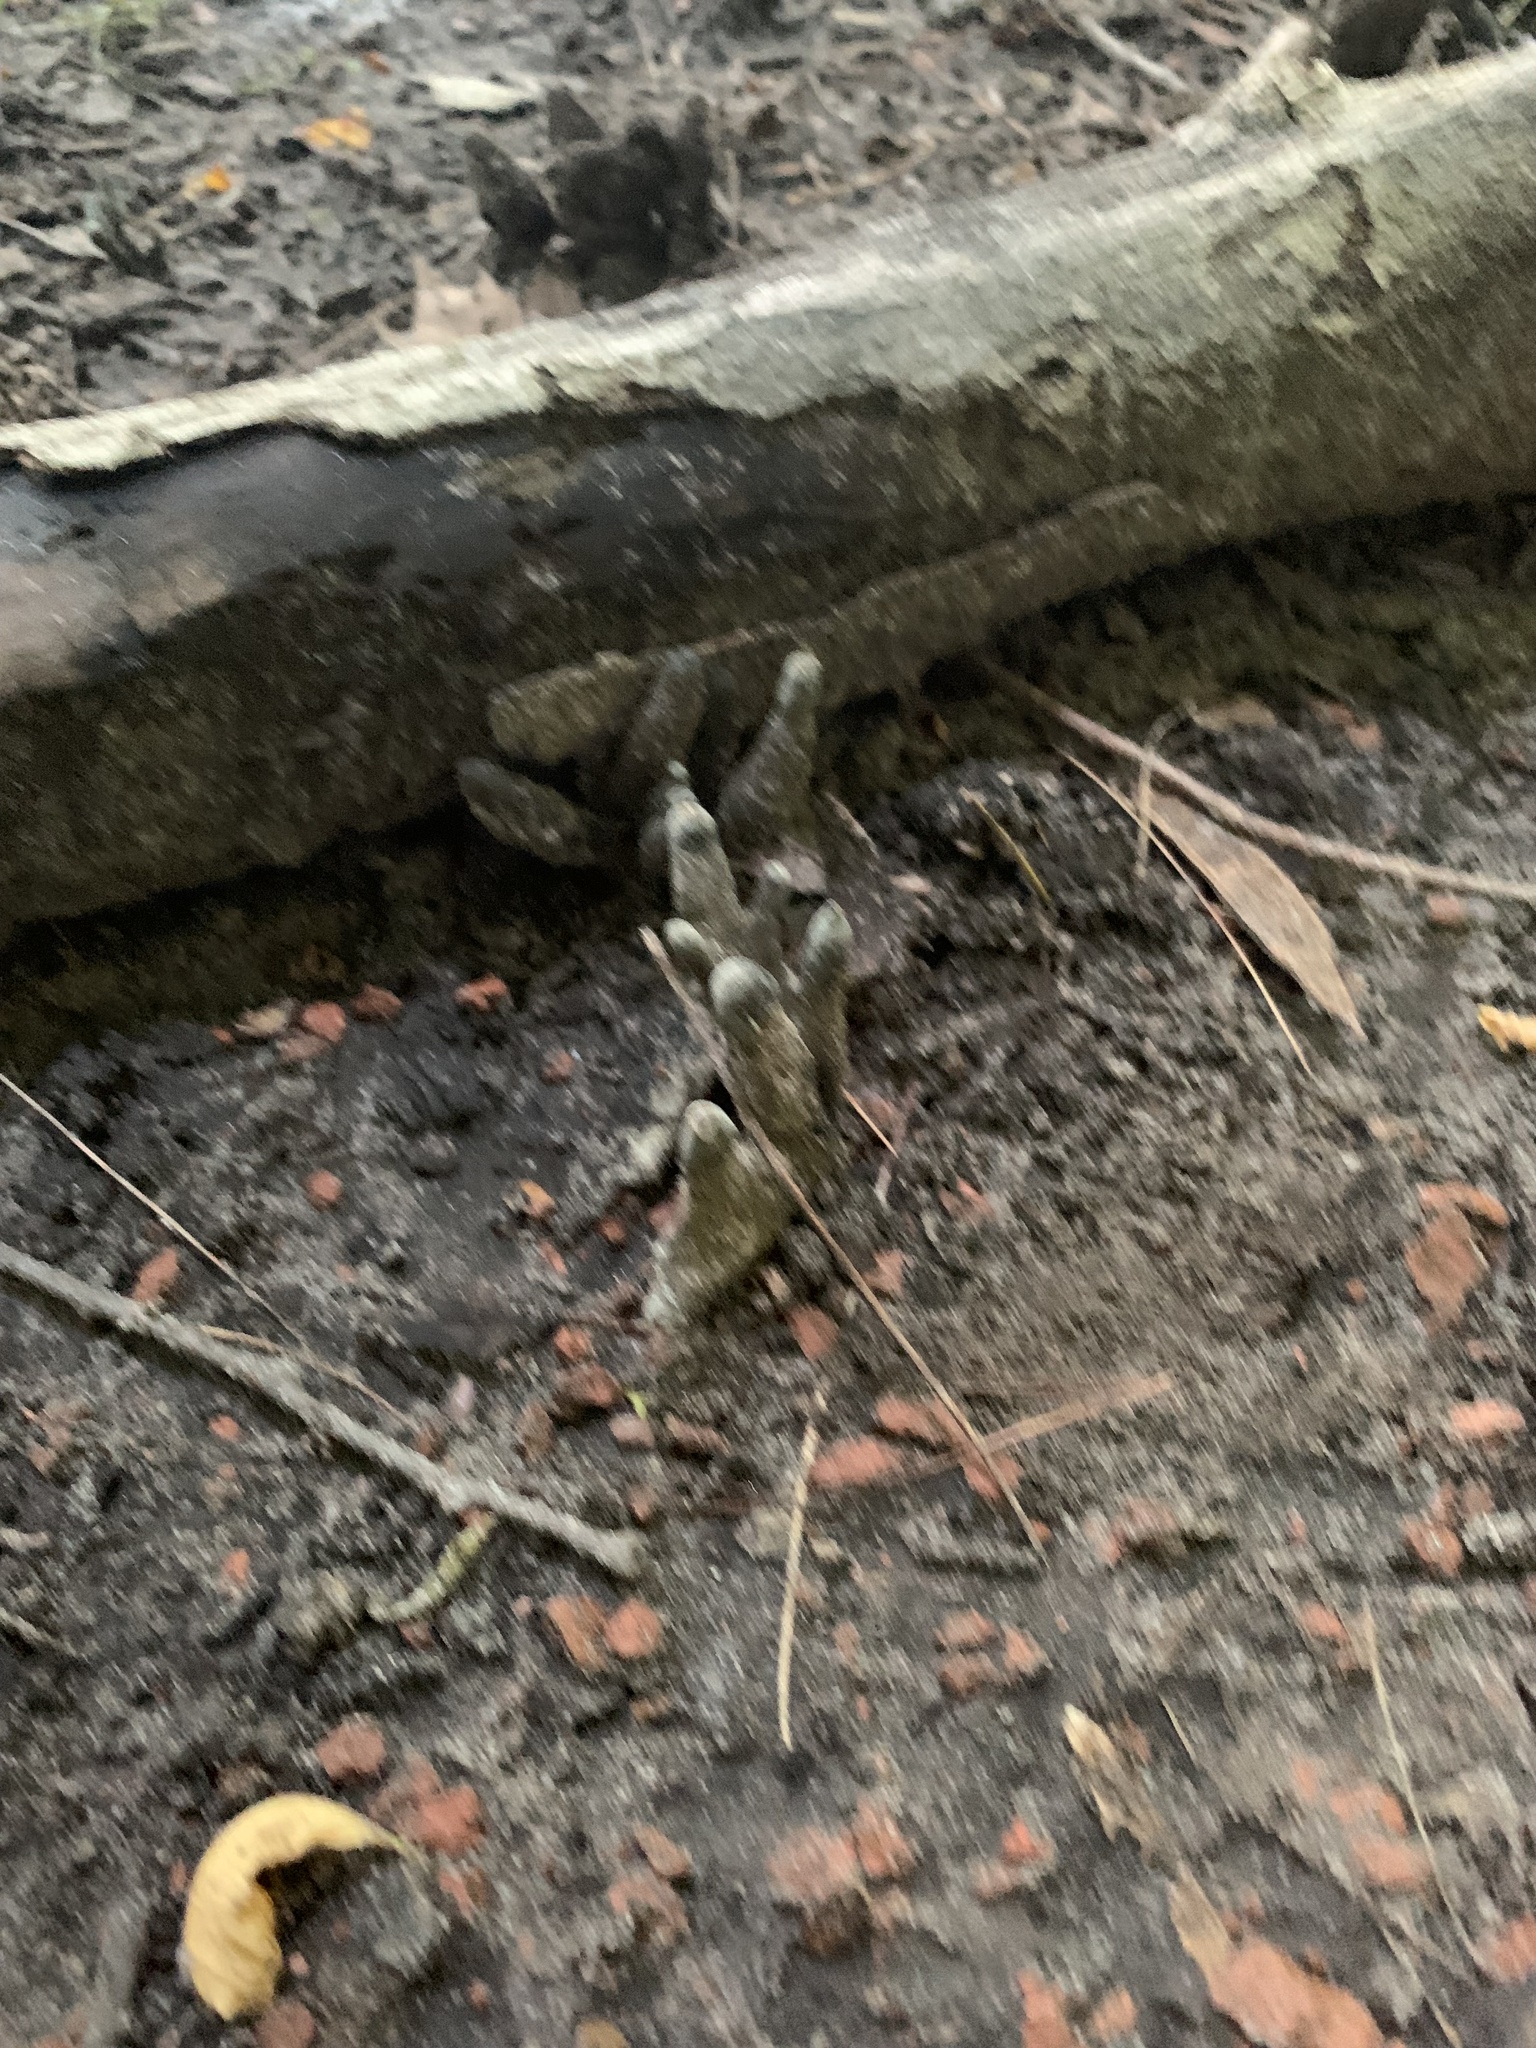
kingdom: Fungi
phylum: Ascomycota
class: Sordariomycetes
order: Xylariales
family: Xylariaceae
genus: Xylaria
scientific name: Xylaria polymorpha
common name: Dead man's fingers
